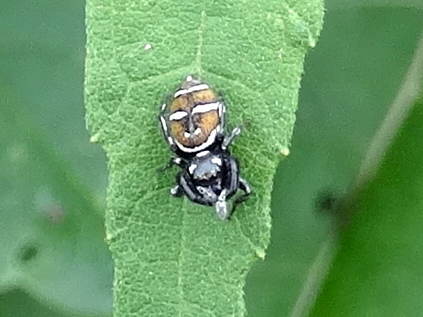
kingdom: Animalia
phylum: Arthropoda
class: Arachnida
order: Araneae
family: Salticidae
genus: Sassacus
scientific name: Sassacus
